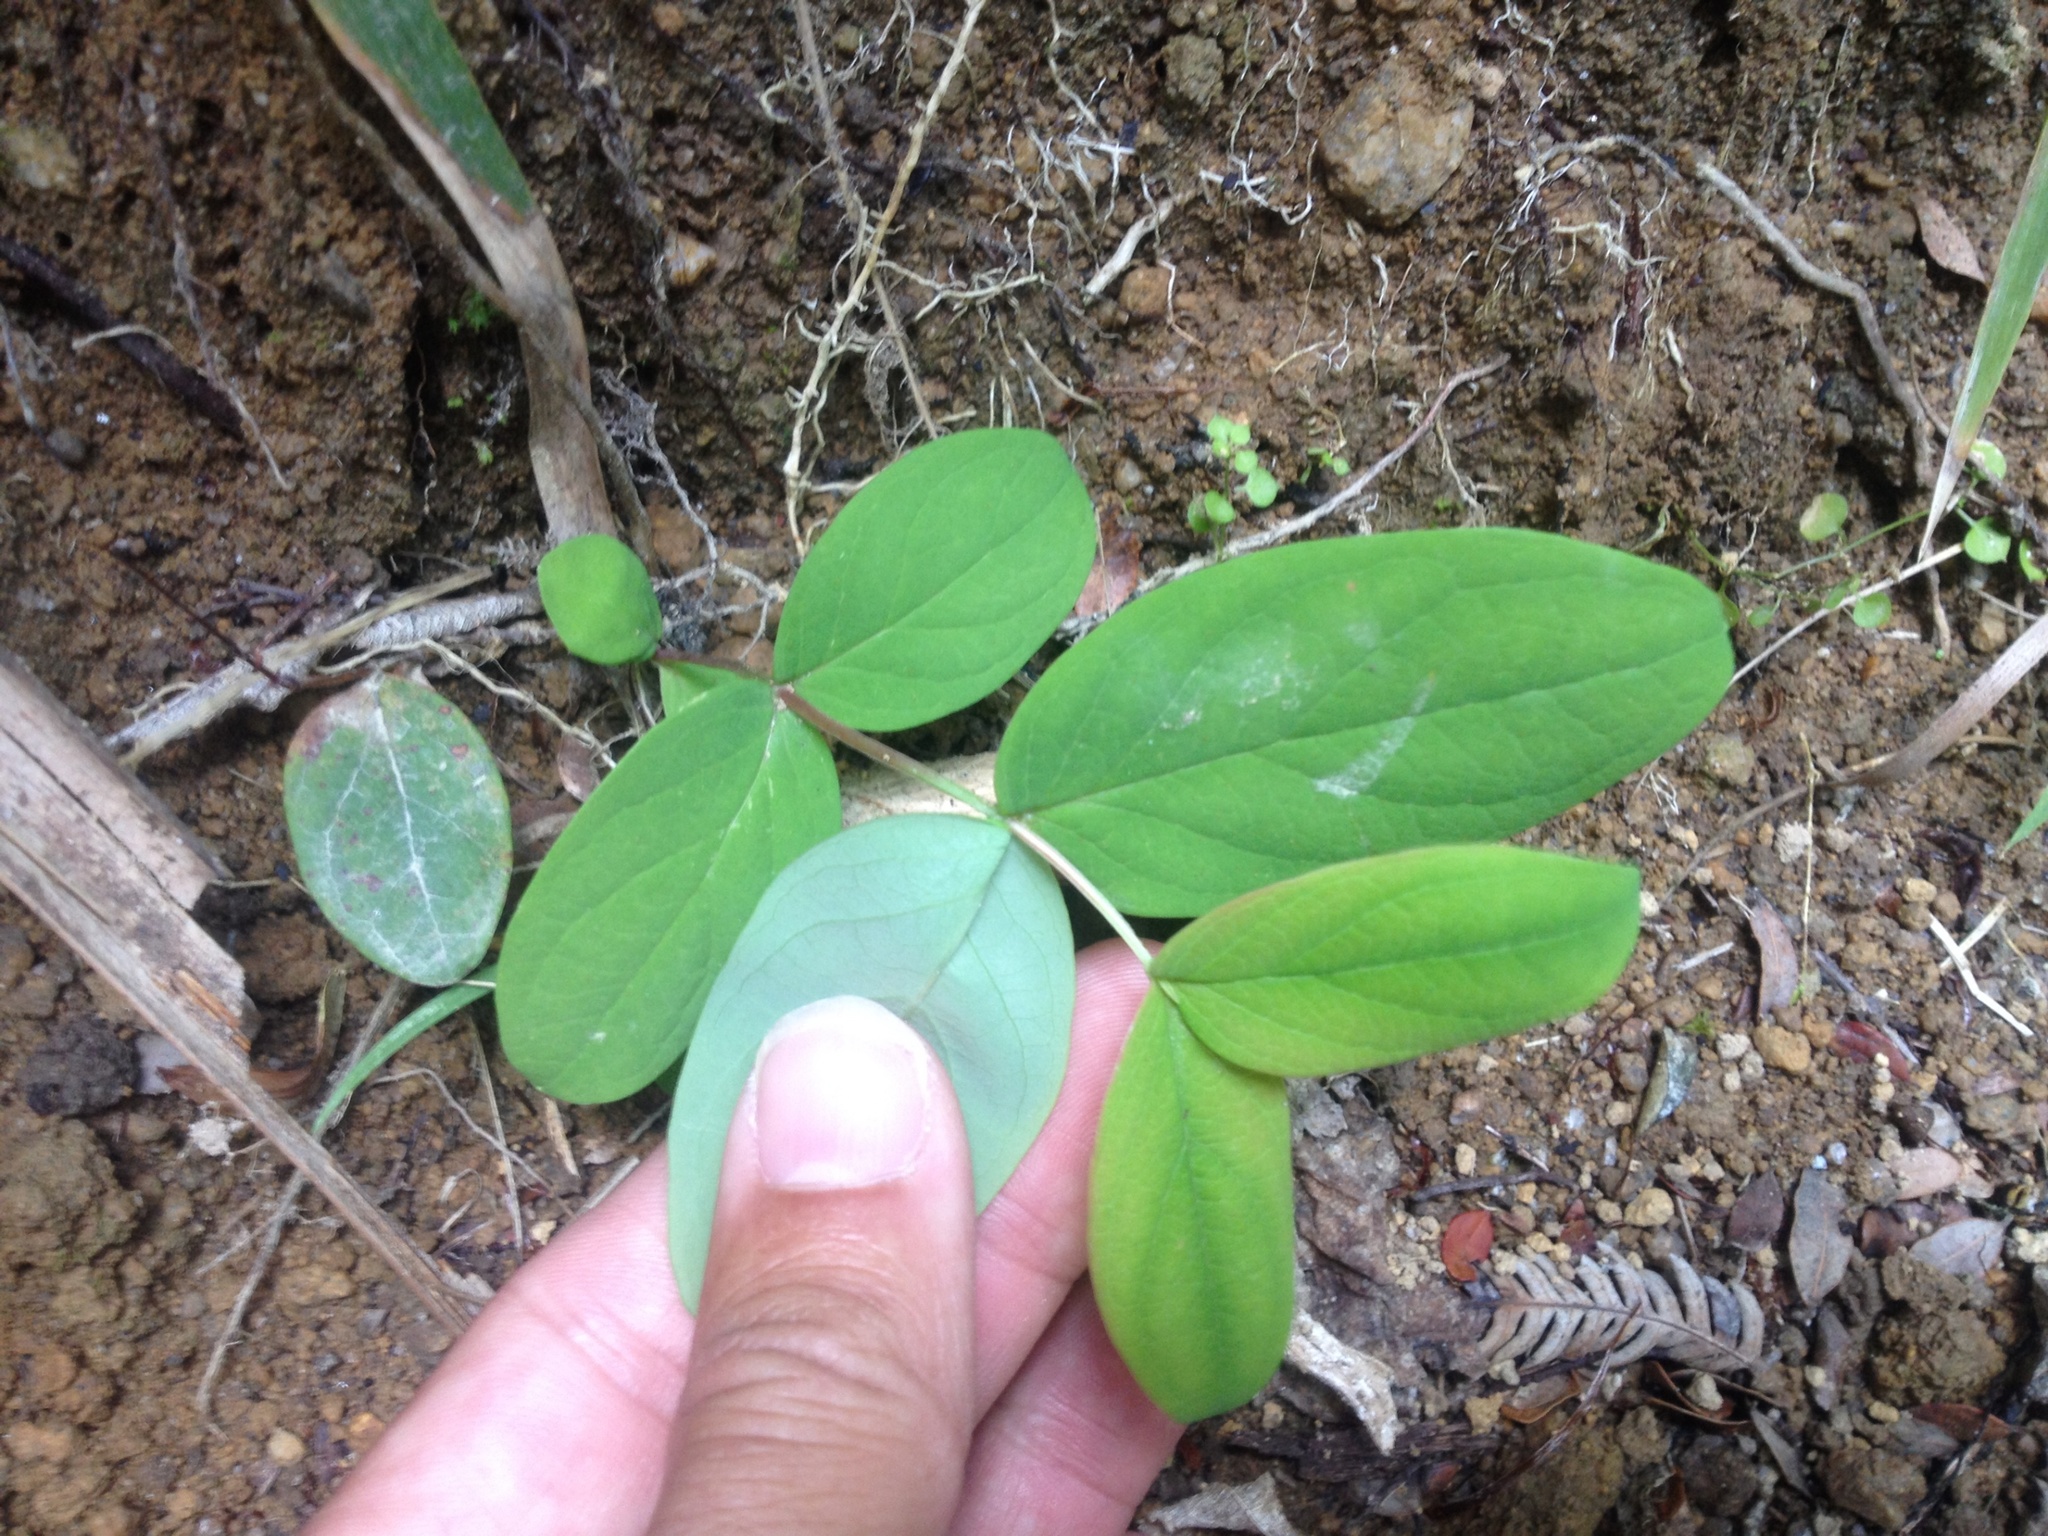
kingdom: Plantae
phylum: Tracheophyta
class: Magnoliopsida
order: Malpighiales
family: Hypericaceae
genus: Hypericum
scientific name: Hypericum androsaemum
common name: Sweet-amber
